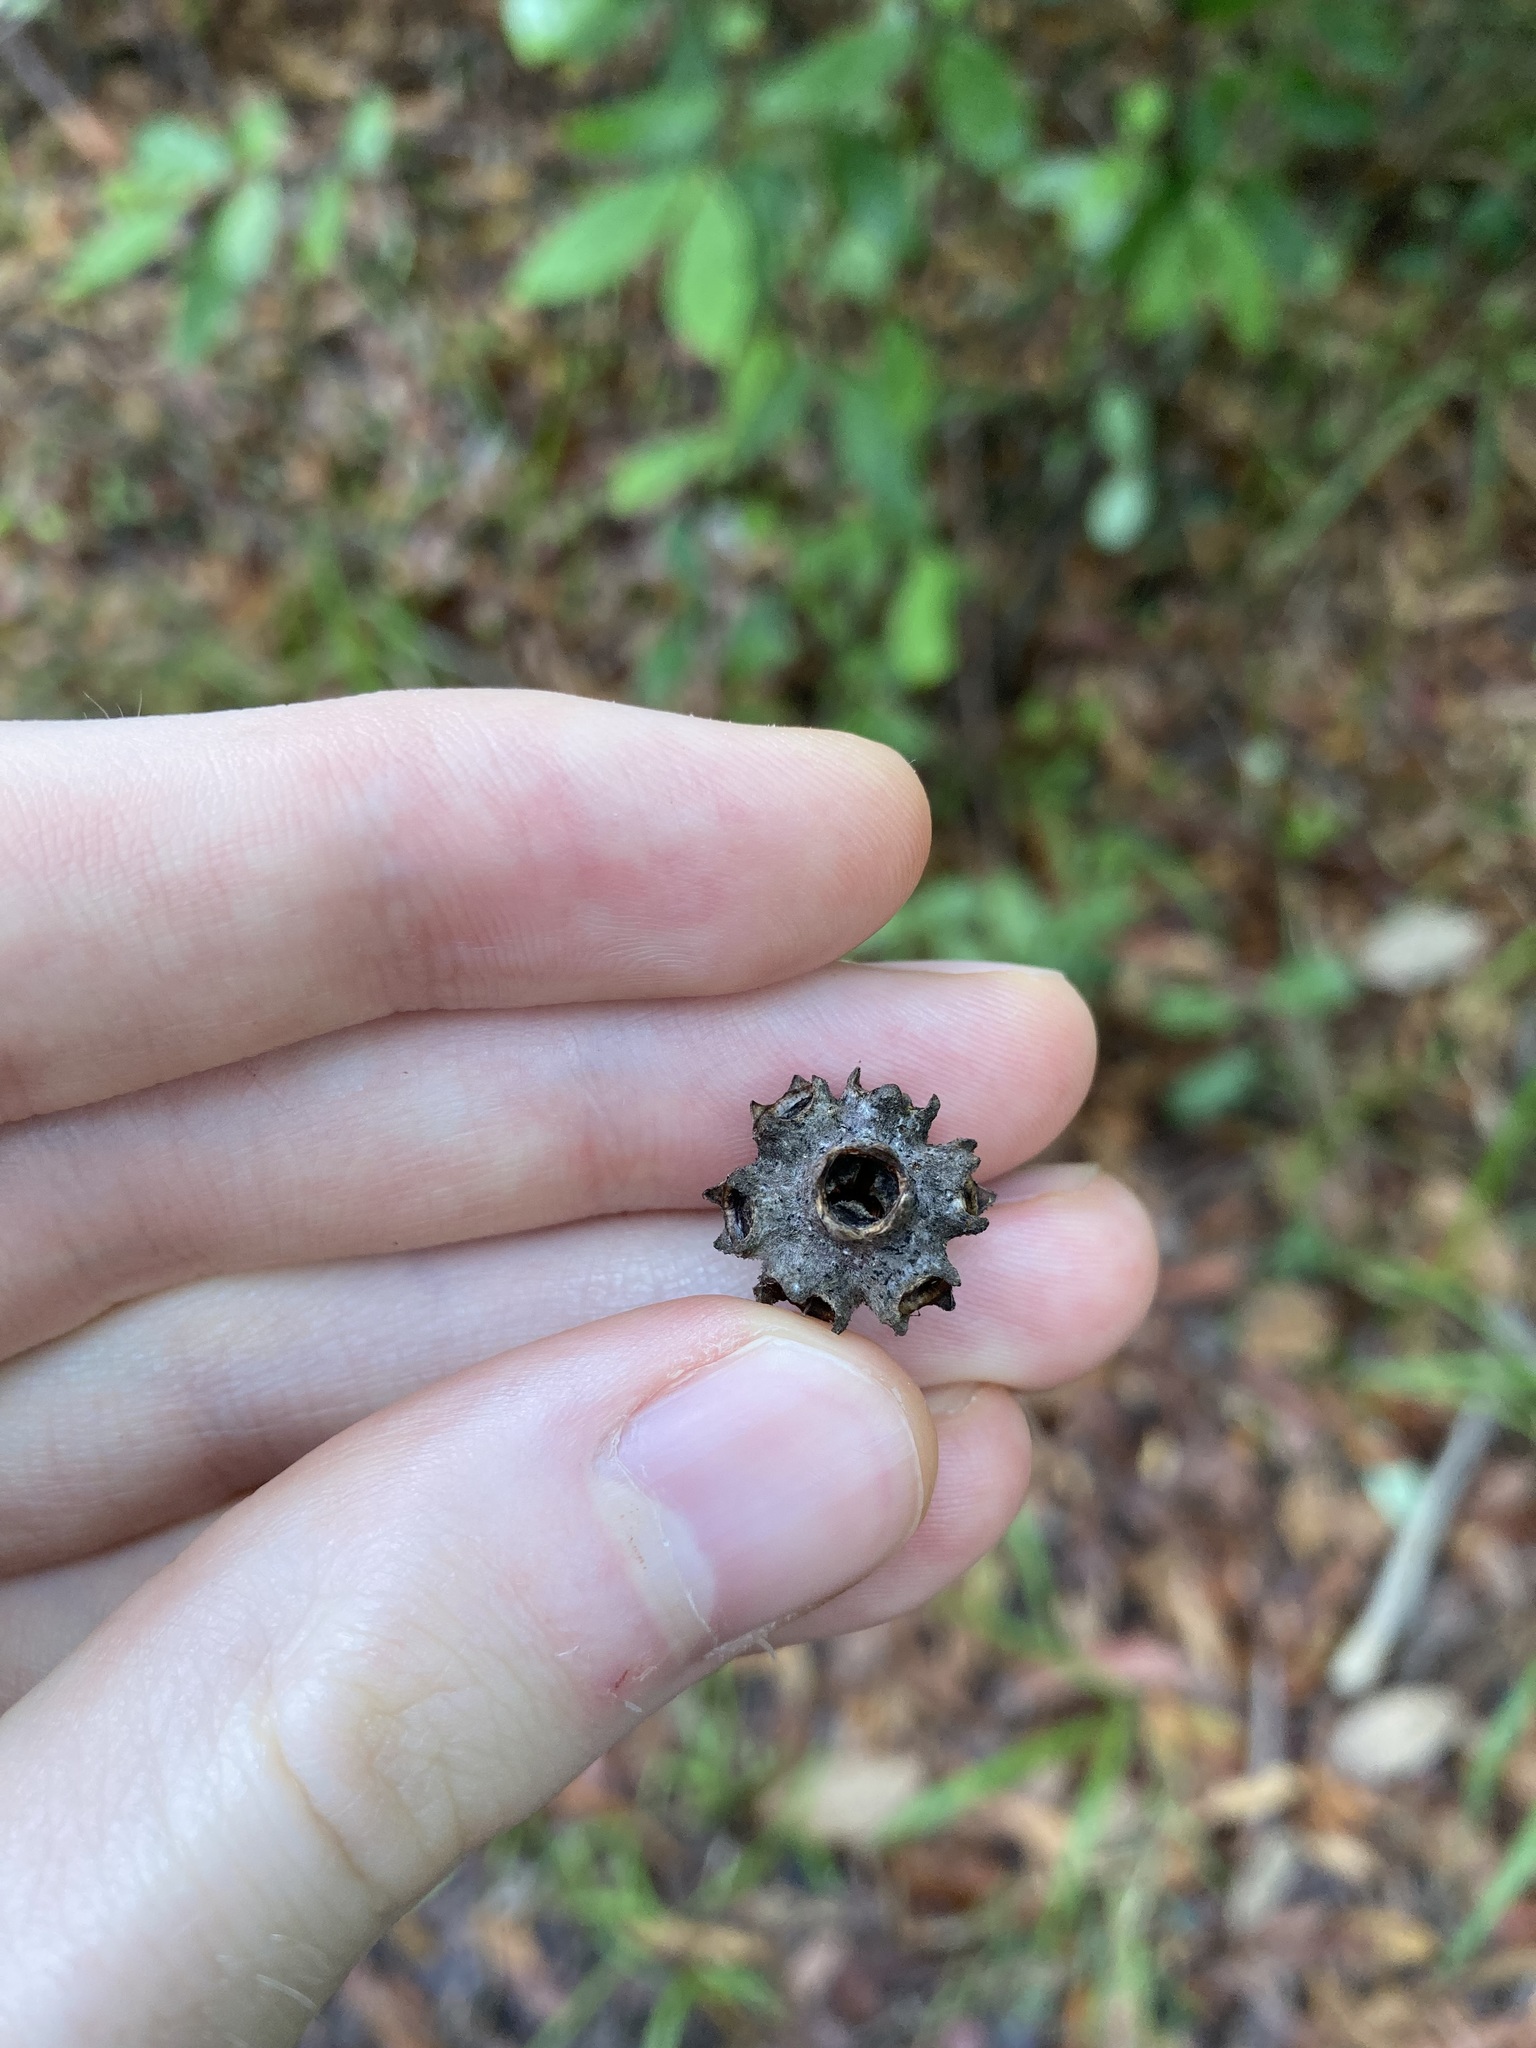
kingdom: Plantae
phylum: Tracheophyta
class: Magnoliopsida
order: Myrtales
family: Myrtaceae
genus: Syncarpia
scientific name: Syncarpia glomulifera
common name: Turpentine tree
